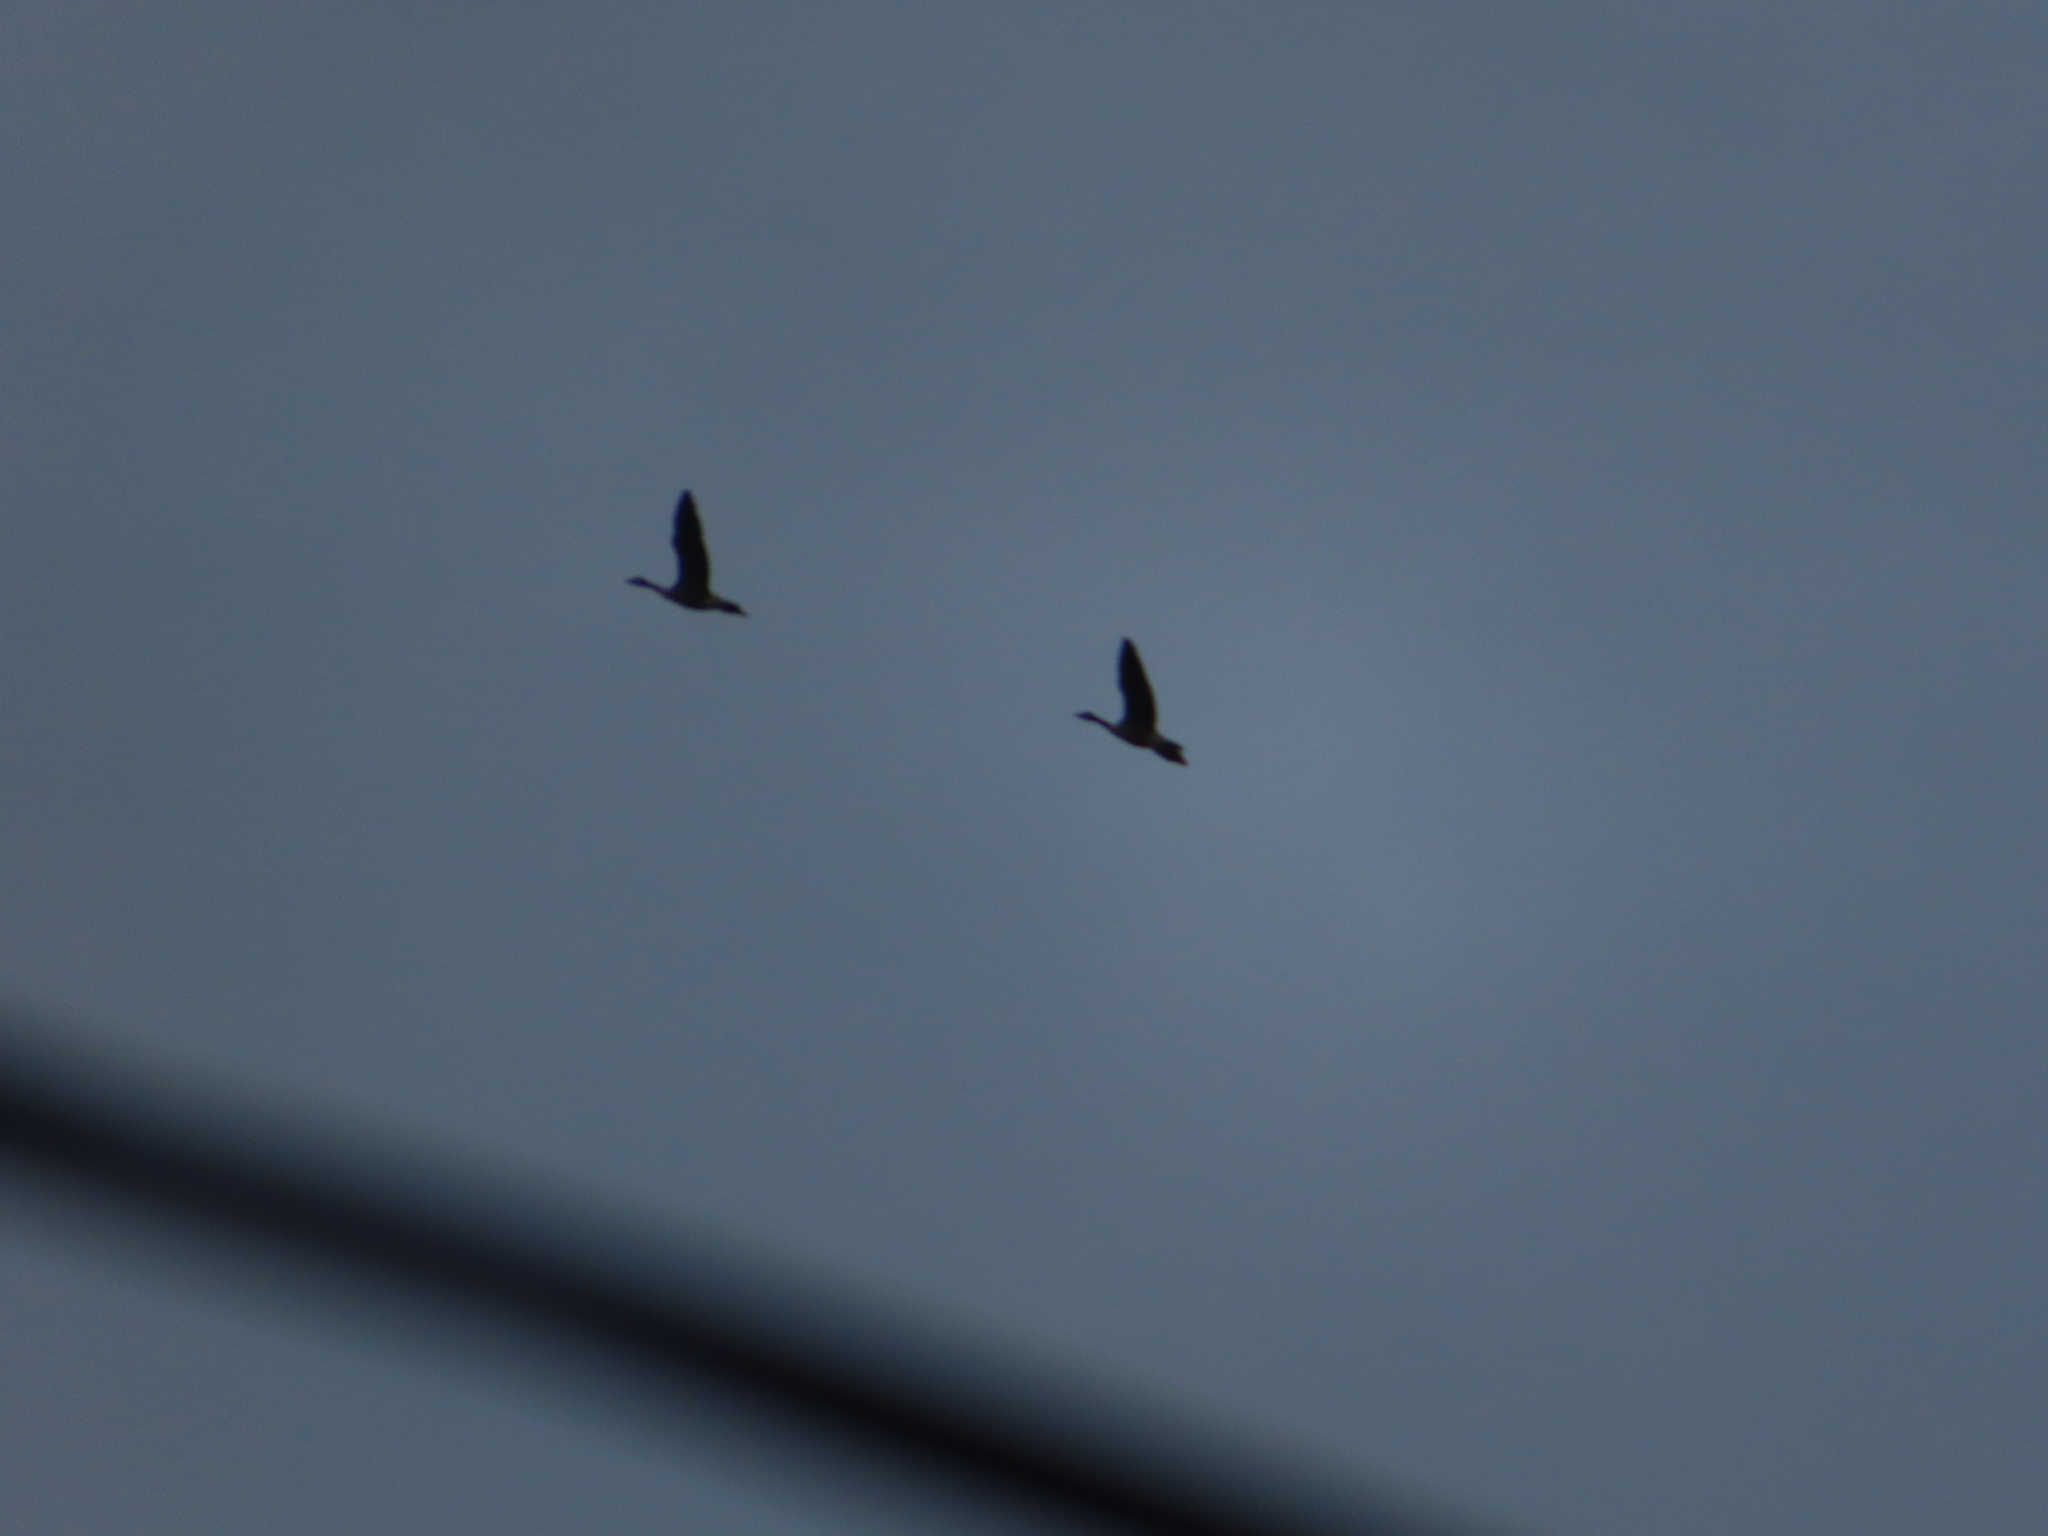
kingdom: Animalia
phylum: Chordata
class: Aves
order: Anseriformes
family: Anatidae
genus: Branta
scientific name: Branta canadensis
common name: Canada goose
